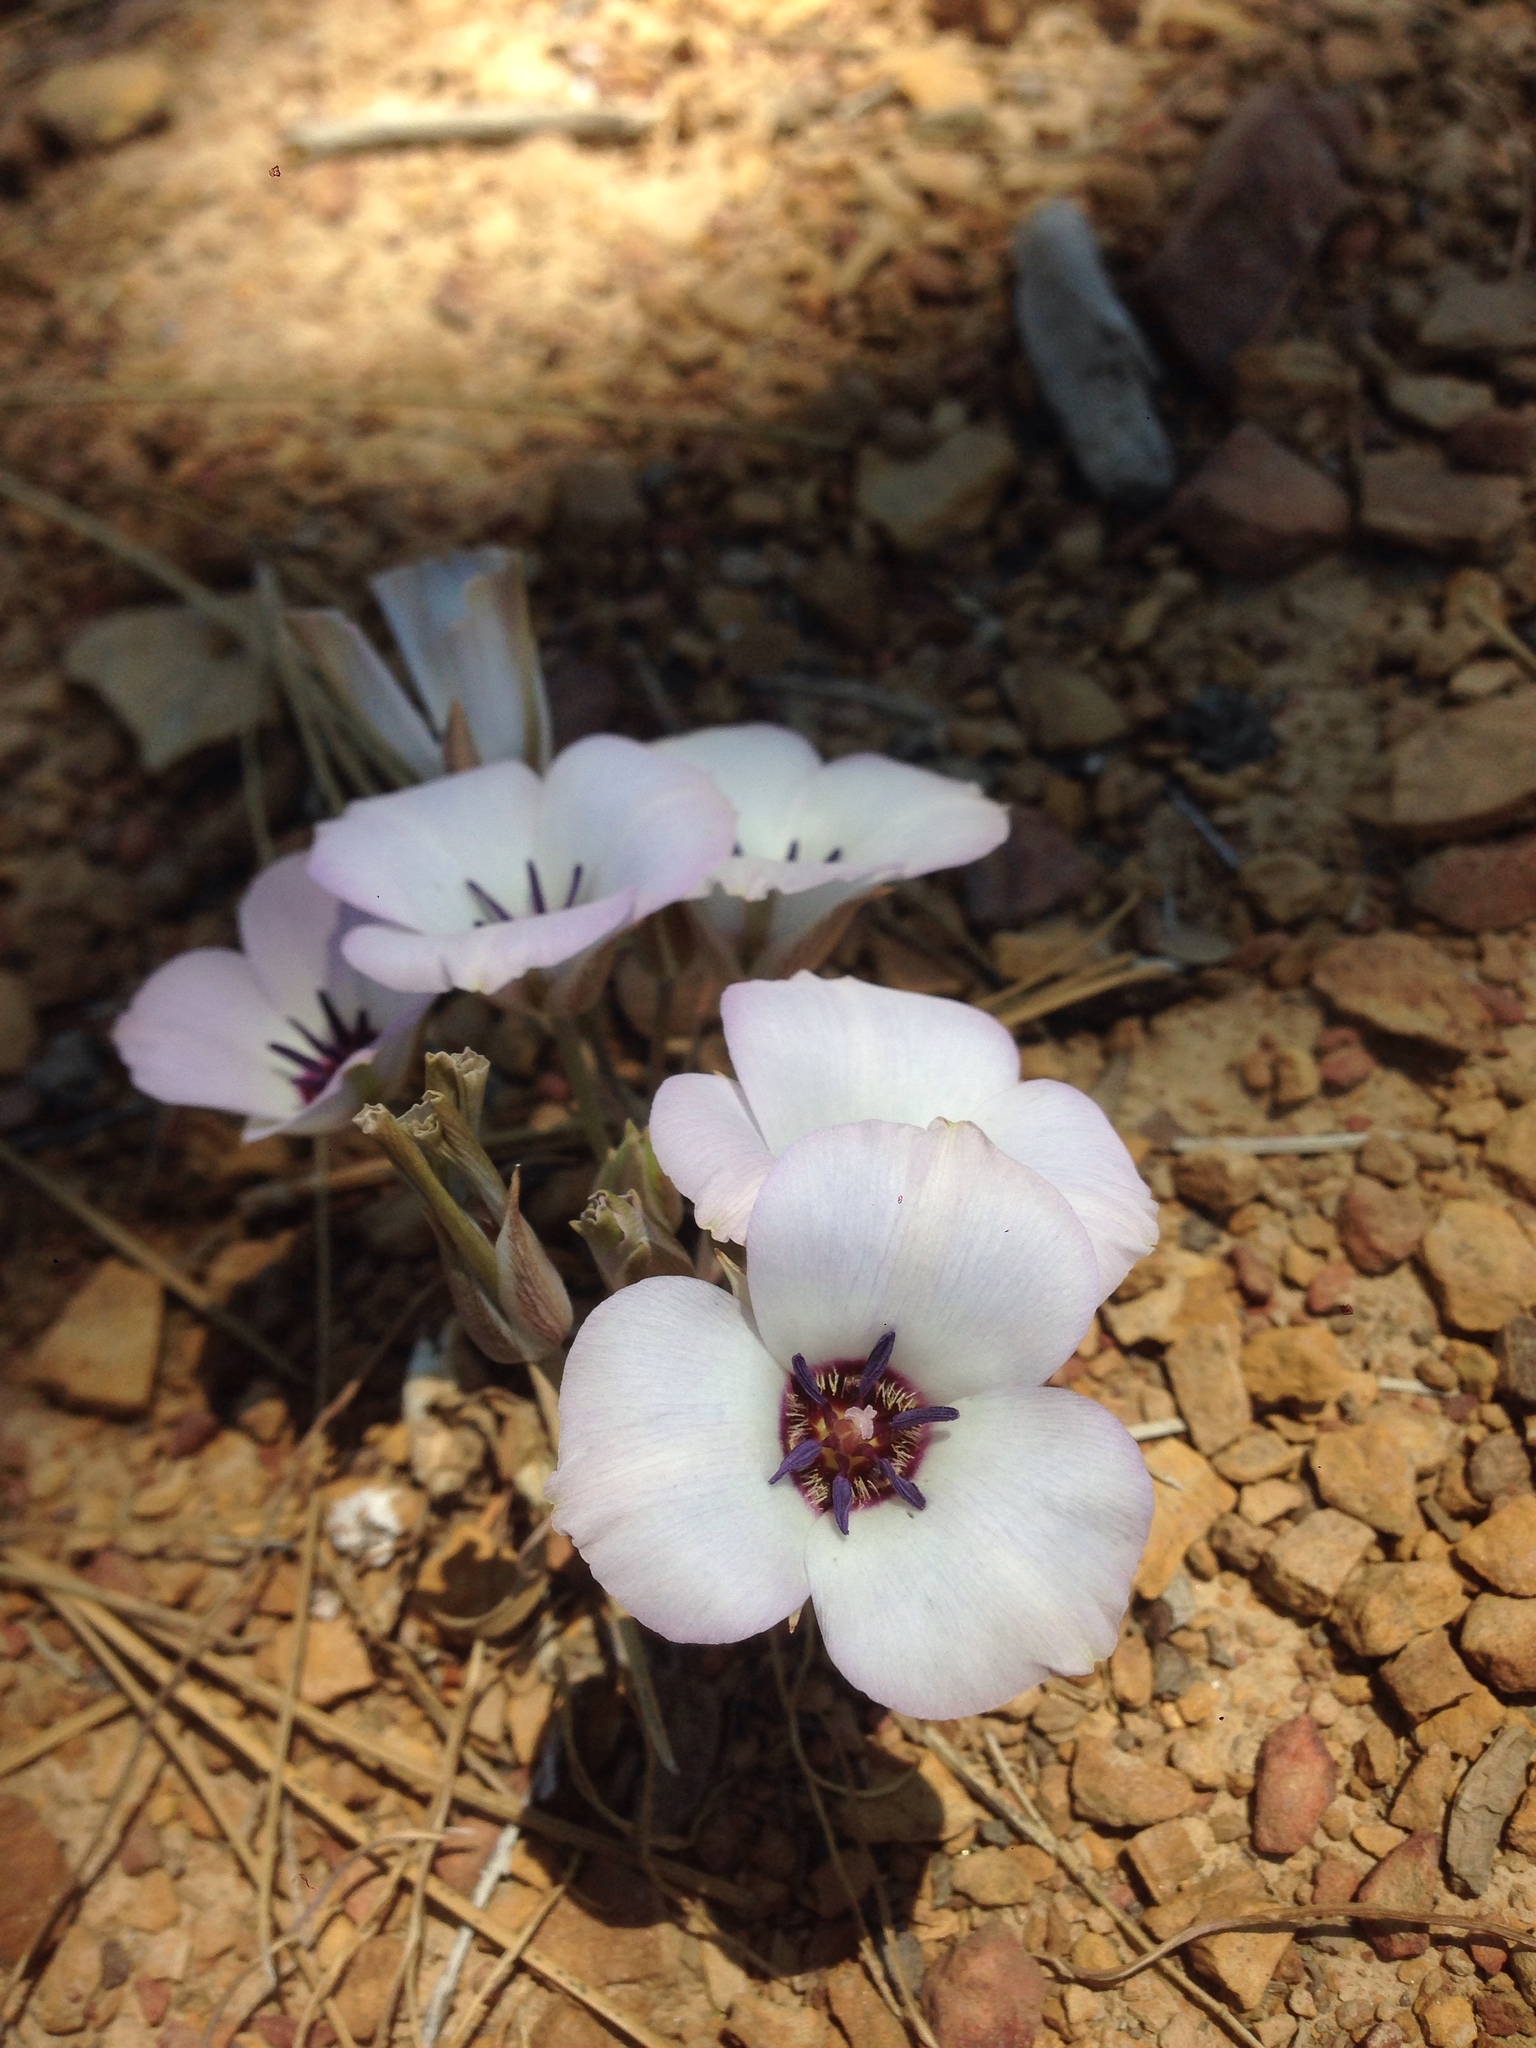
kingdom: Plantae
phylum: Tracheophyta
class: Liliopsida
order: Liliales
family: Liliaceae
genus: Calochortus
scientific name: Calochortus invenustus
